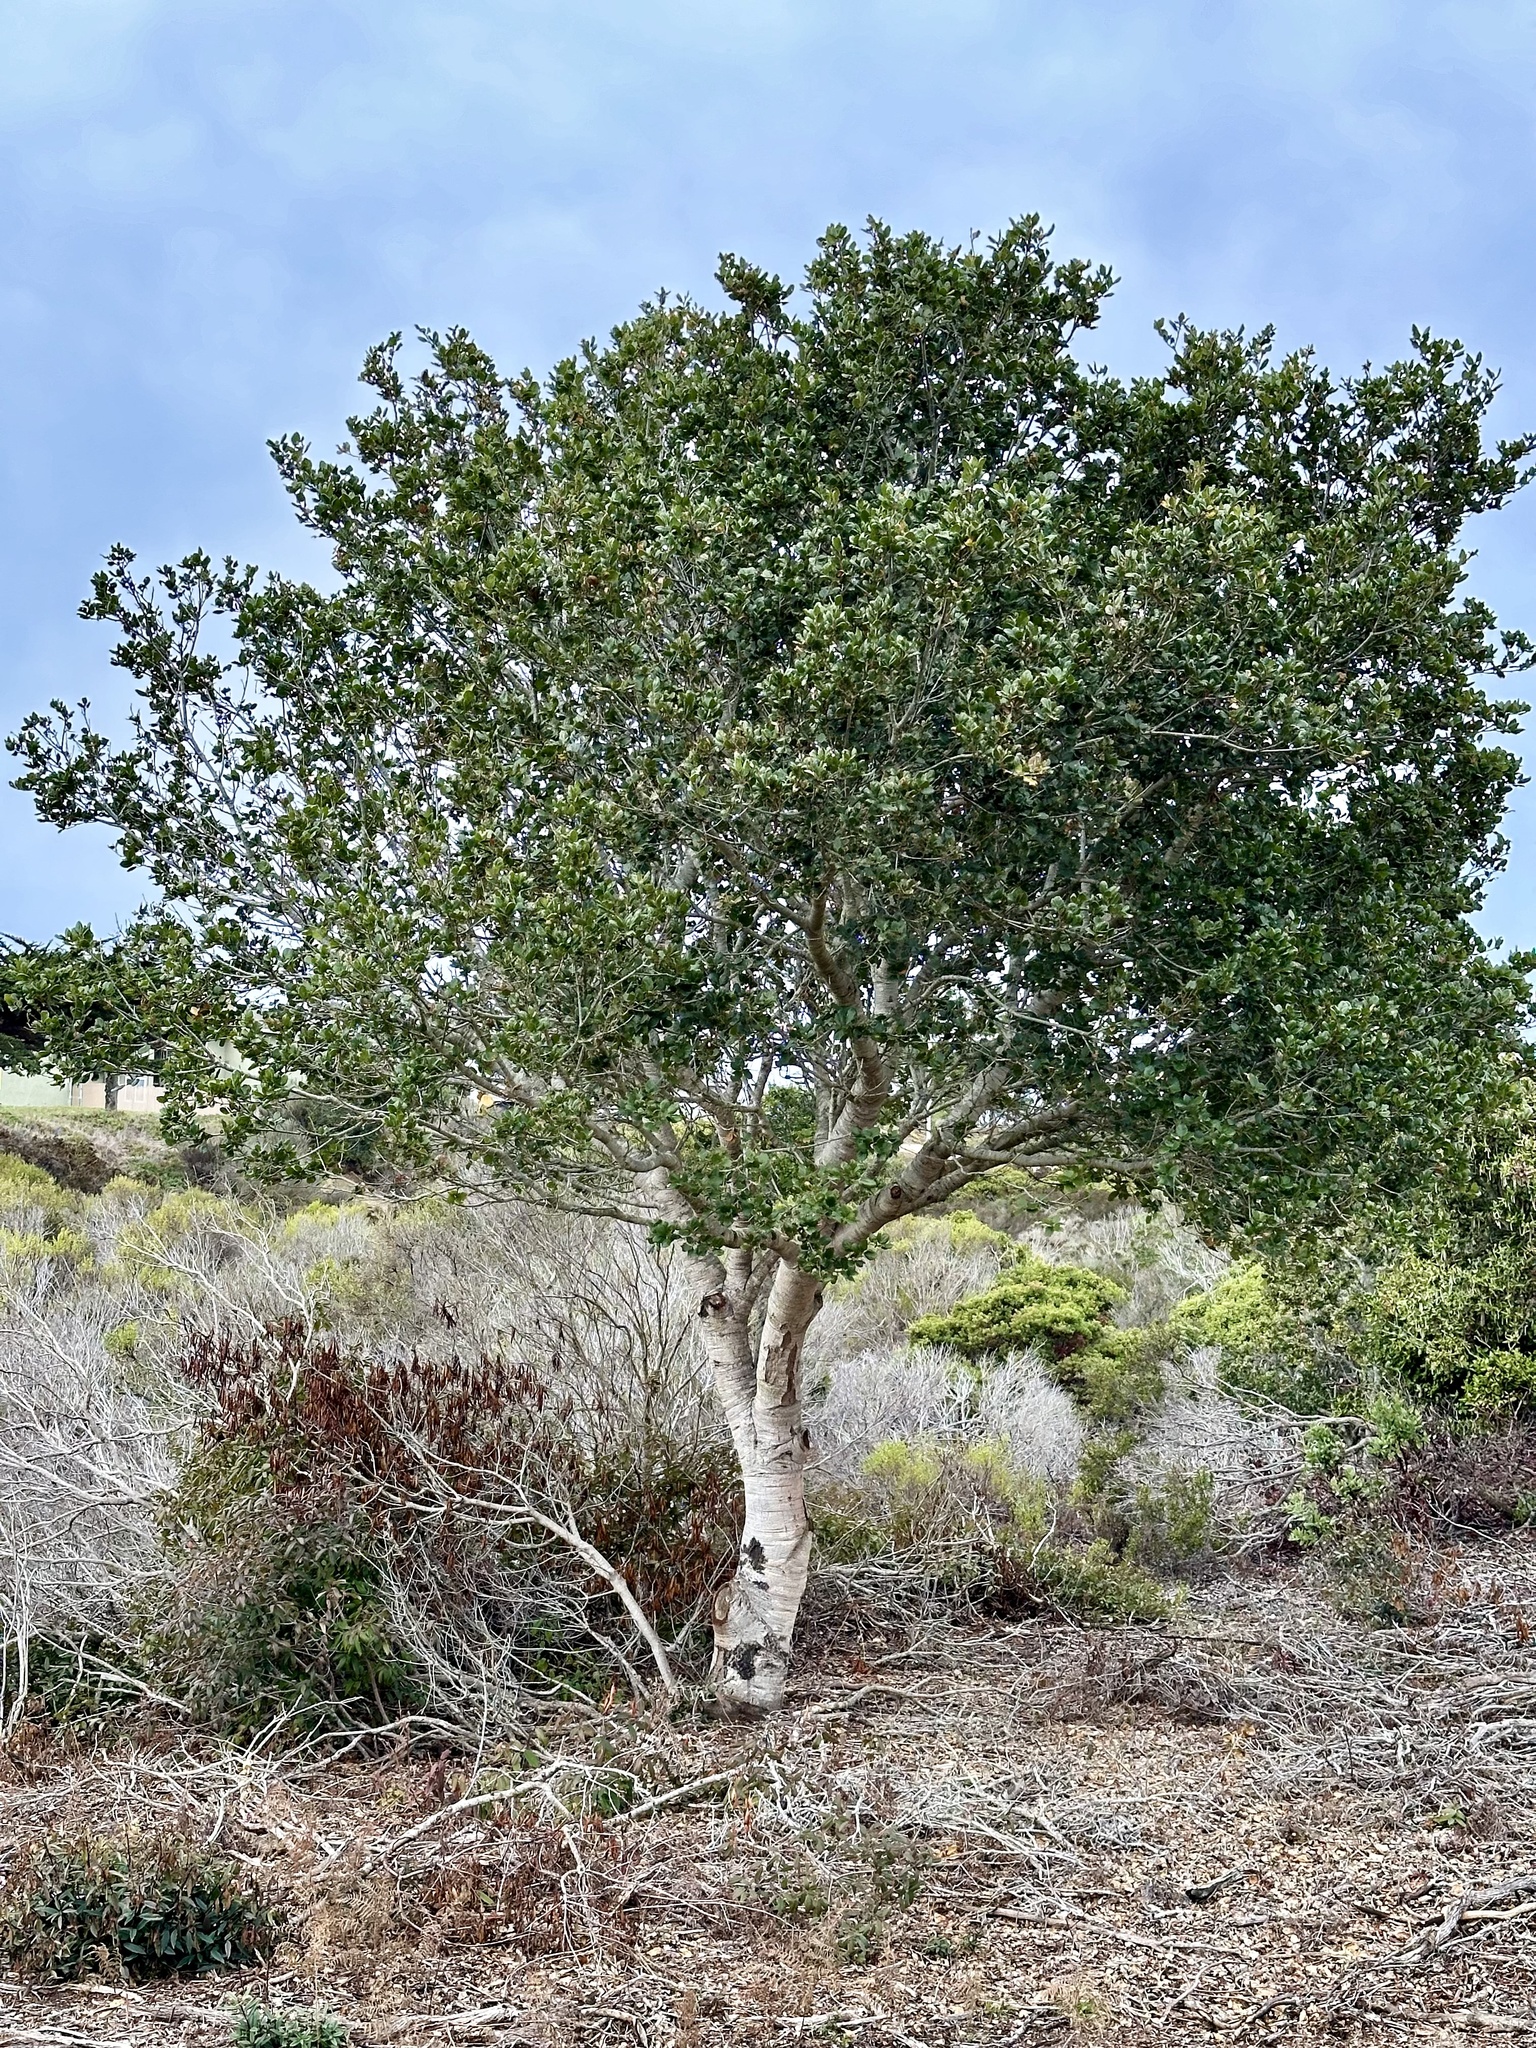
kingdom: Plantae
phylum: Tracheophyta
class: Magnoliopsida
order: Fagales
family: Fagaceae
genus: Quercus
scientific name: Quercus agrifolia
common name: California live oak
